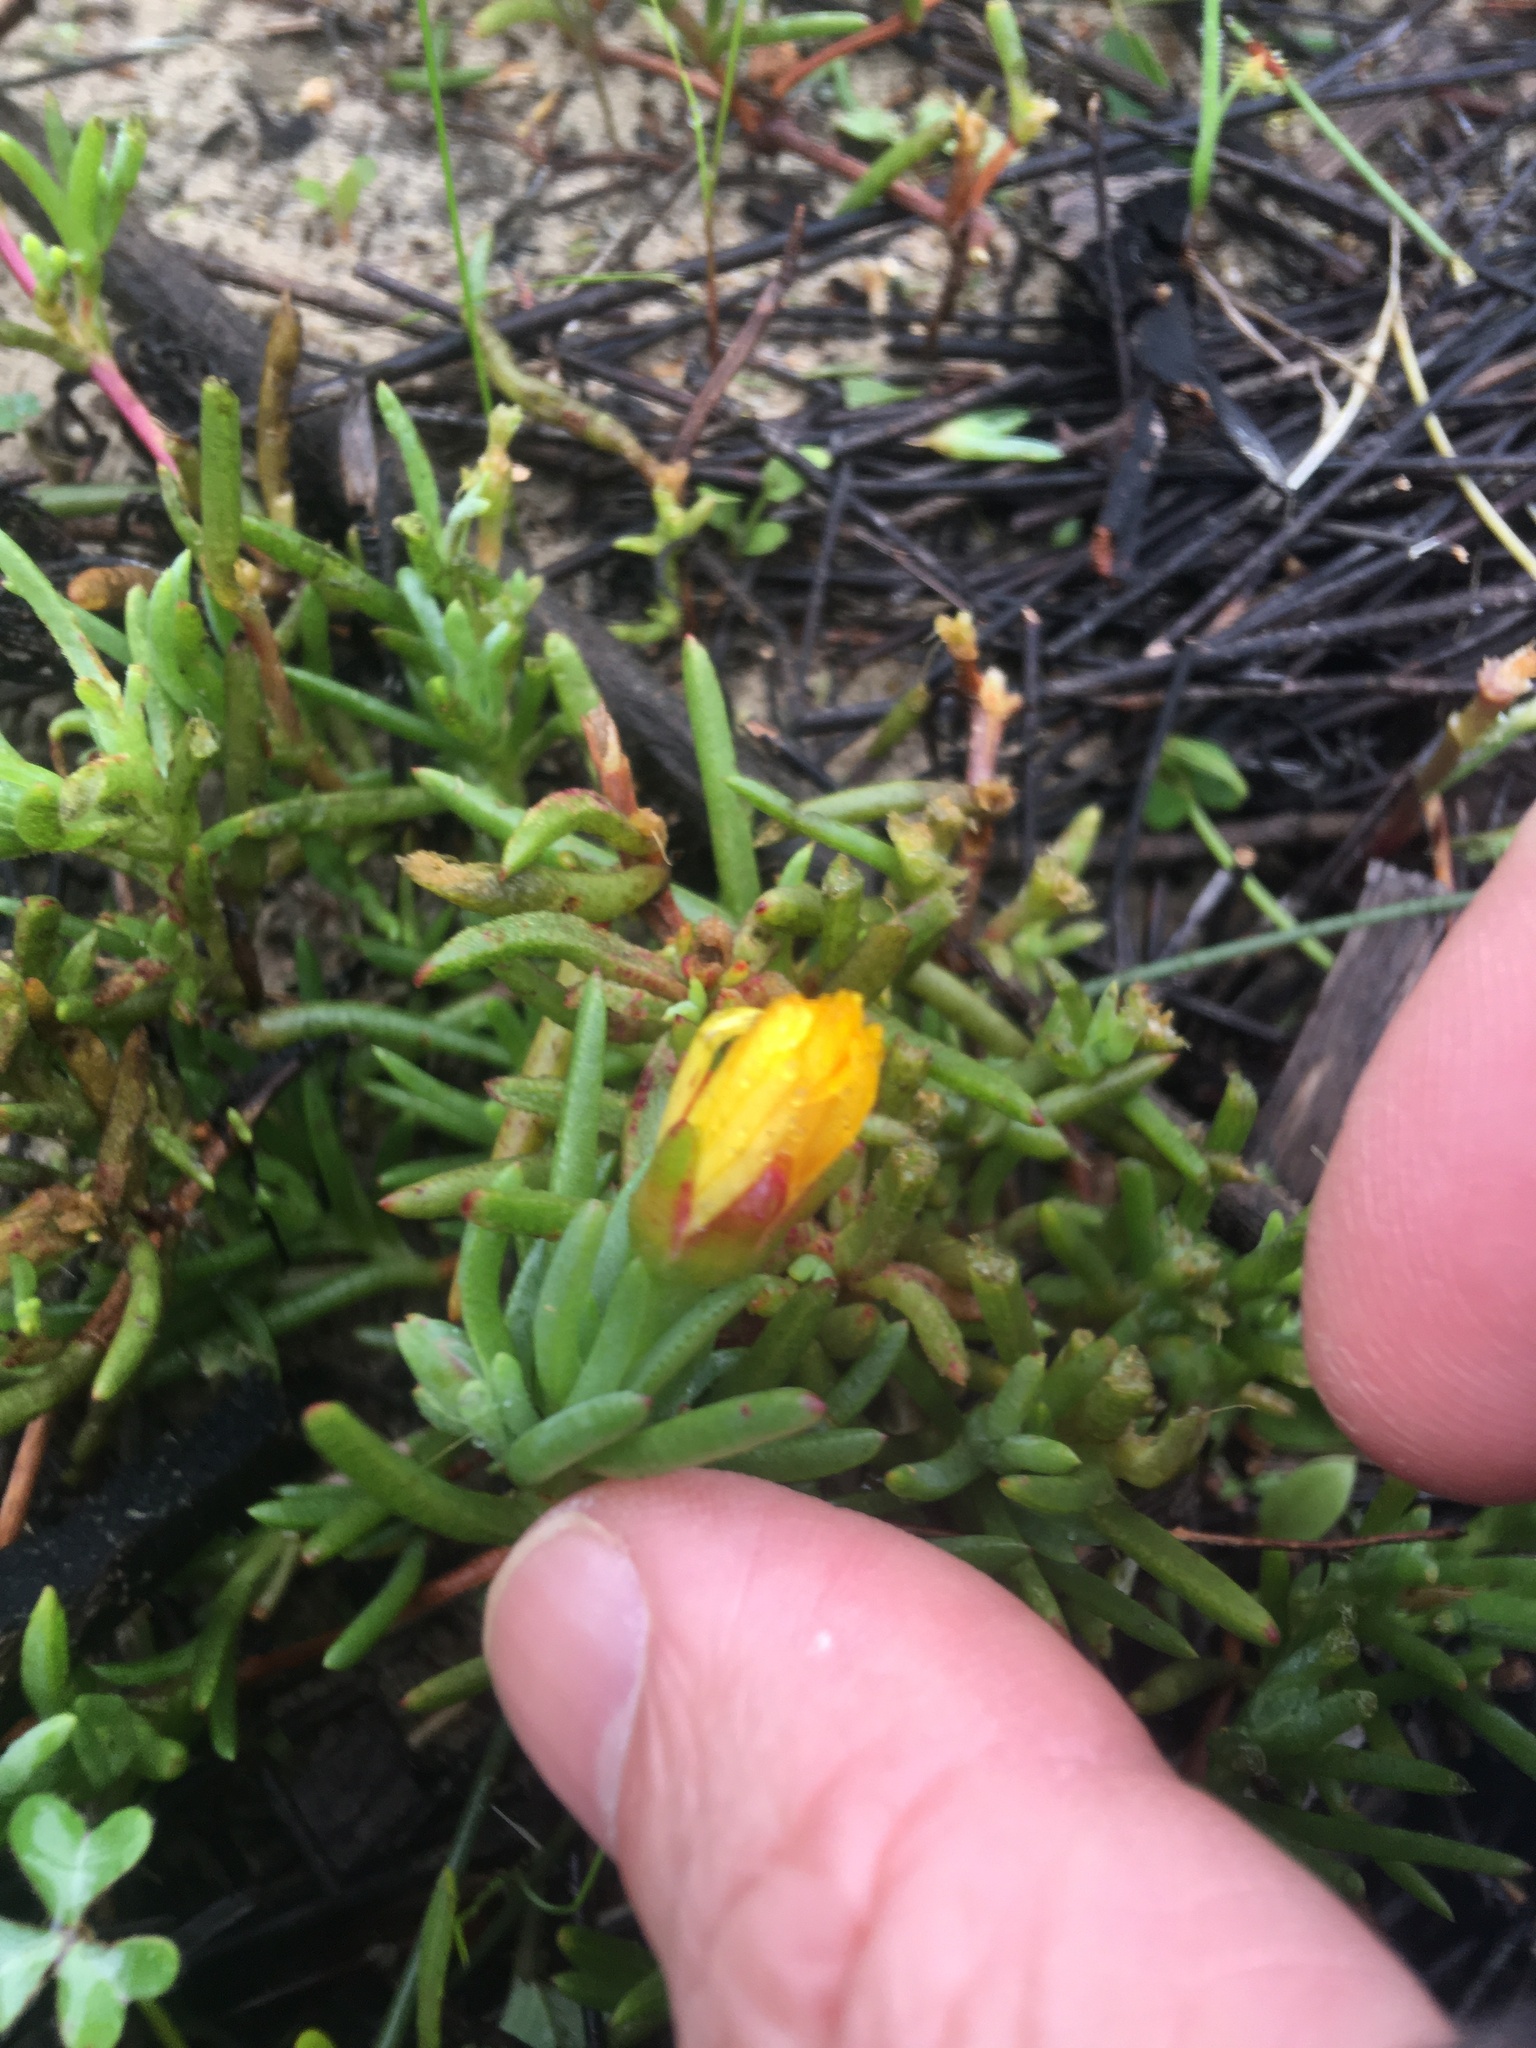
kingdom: Plantae
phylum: Tracheophyta
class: Magnoliopsida
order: Caryophyllales
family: Aizoaceae
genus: Lampranthus
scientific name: Lampranthus explanatus
